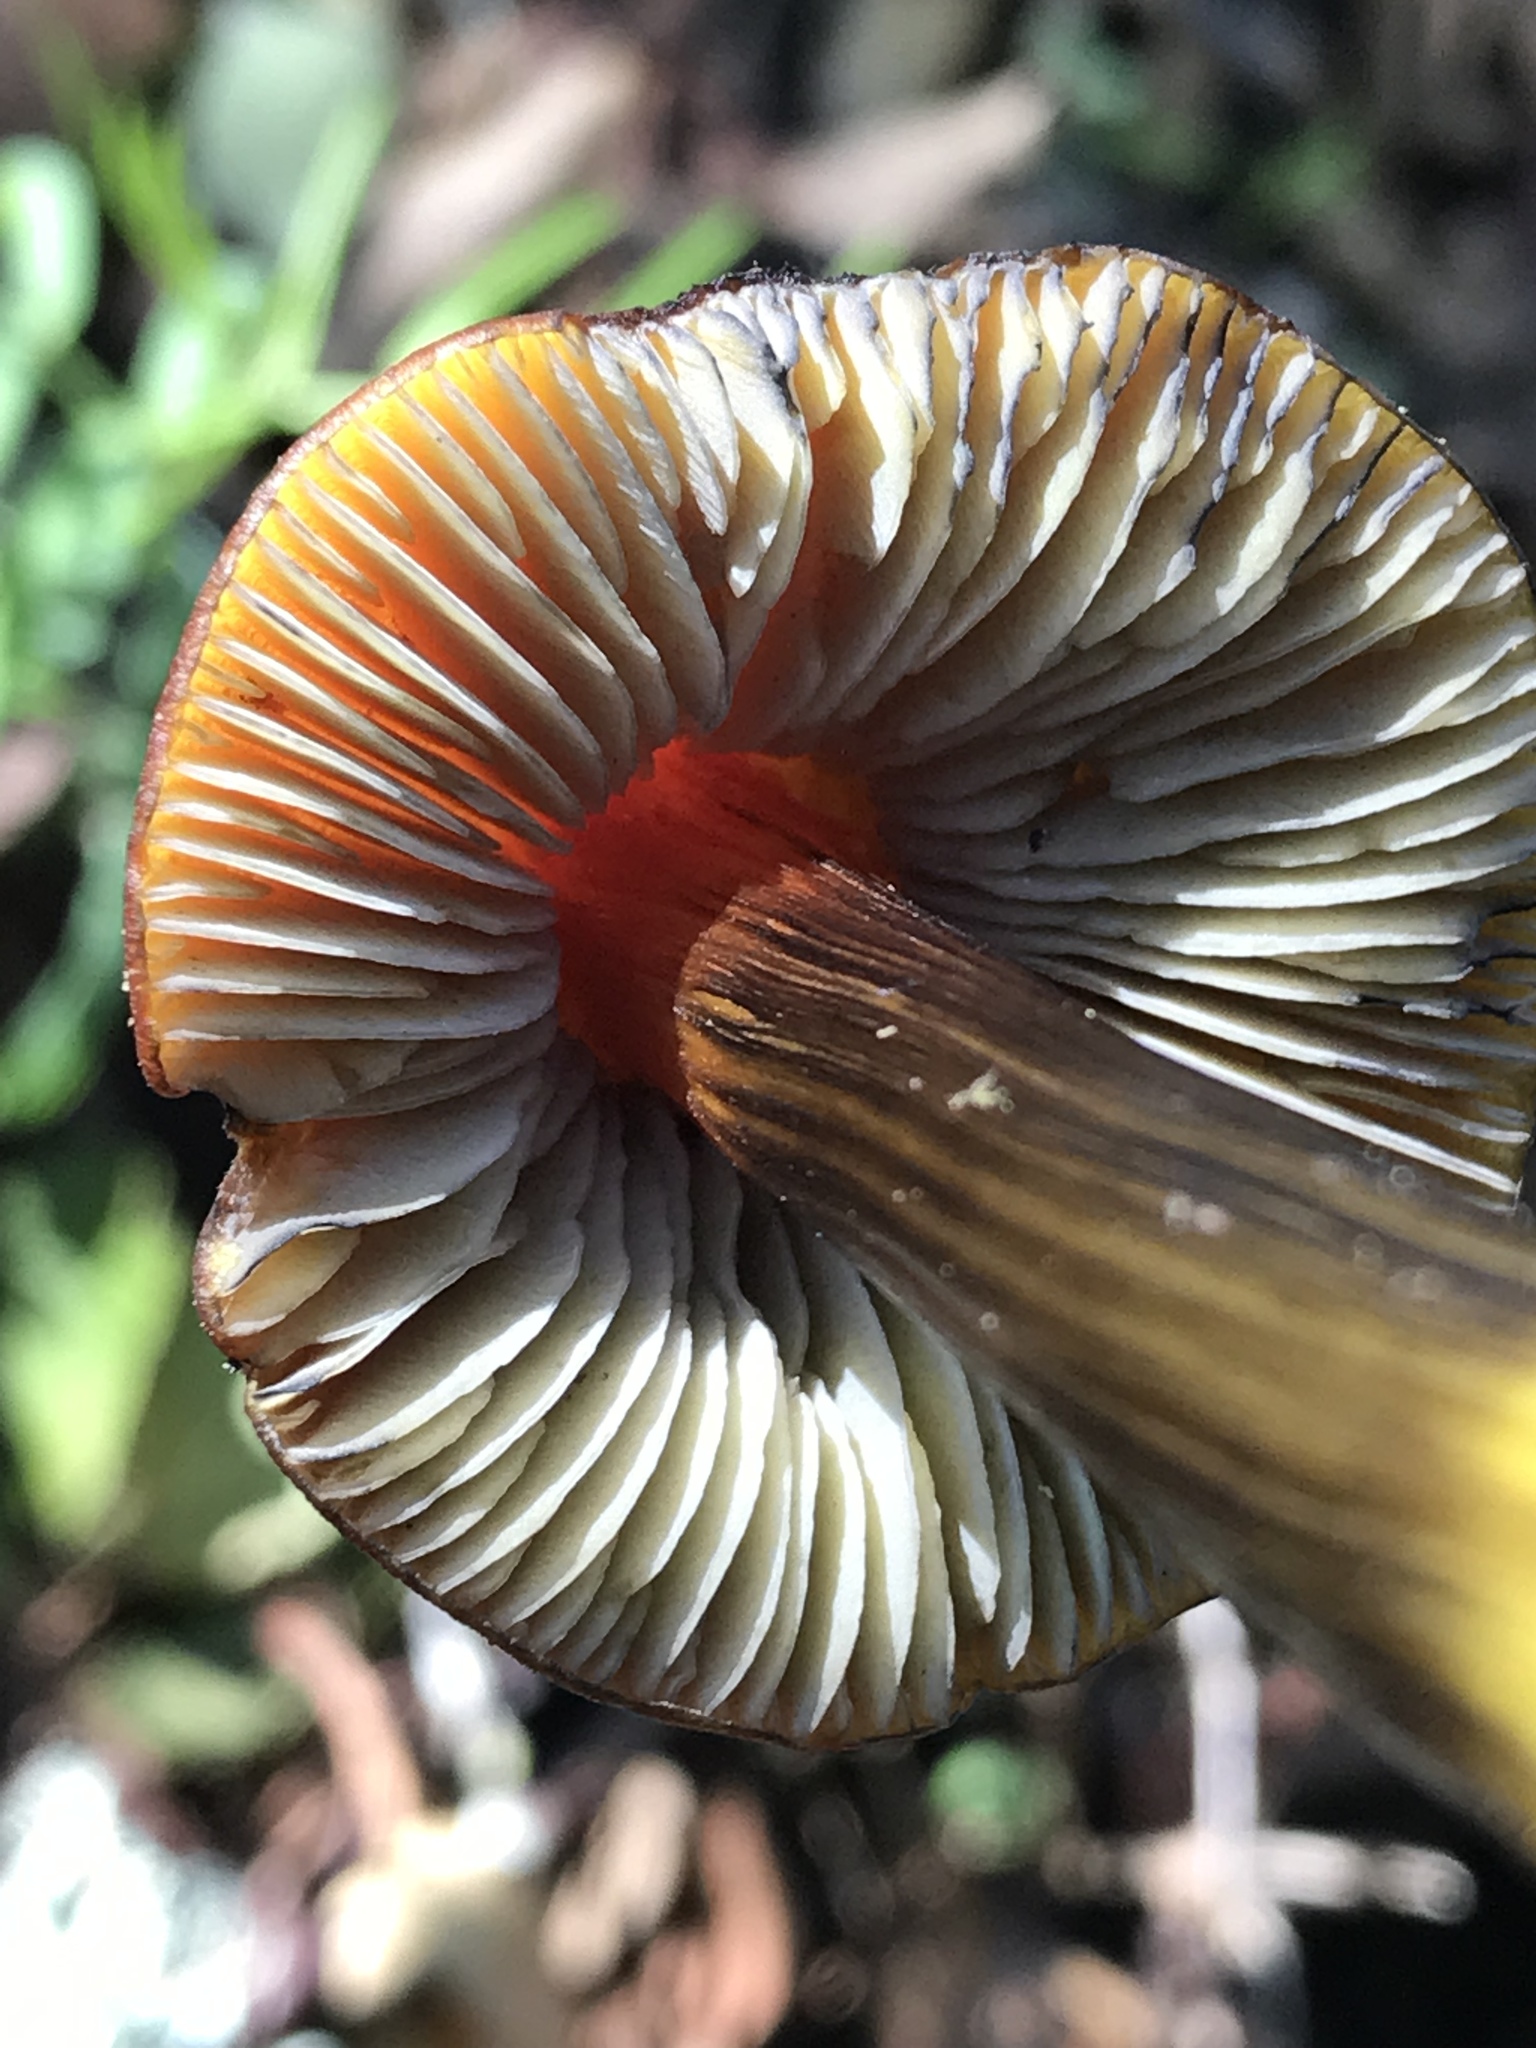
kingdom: Fungi
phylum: Basidiomycota
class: Agaricomycetes
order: Agaricales
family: Hygrophoraceae
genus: Hygrocybe
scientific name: Hygrocybe singeri
